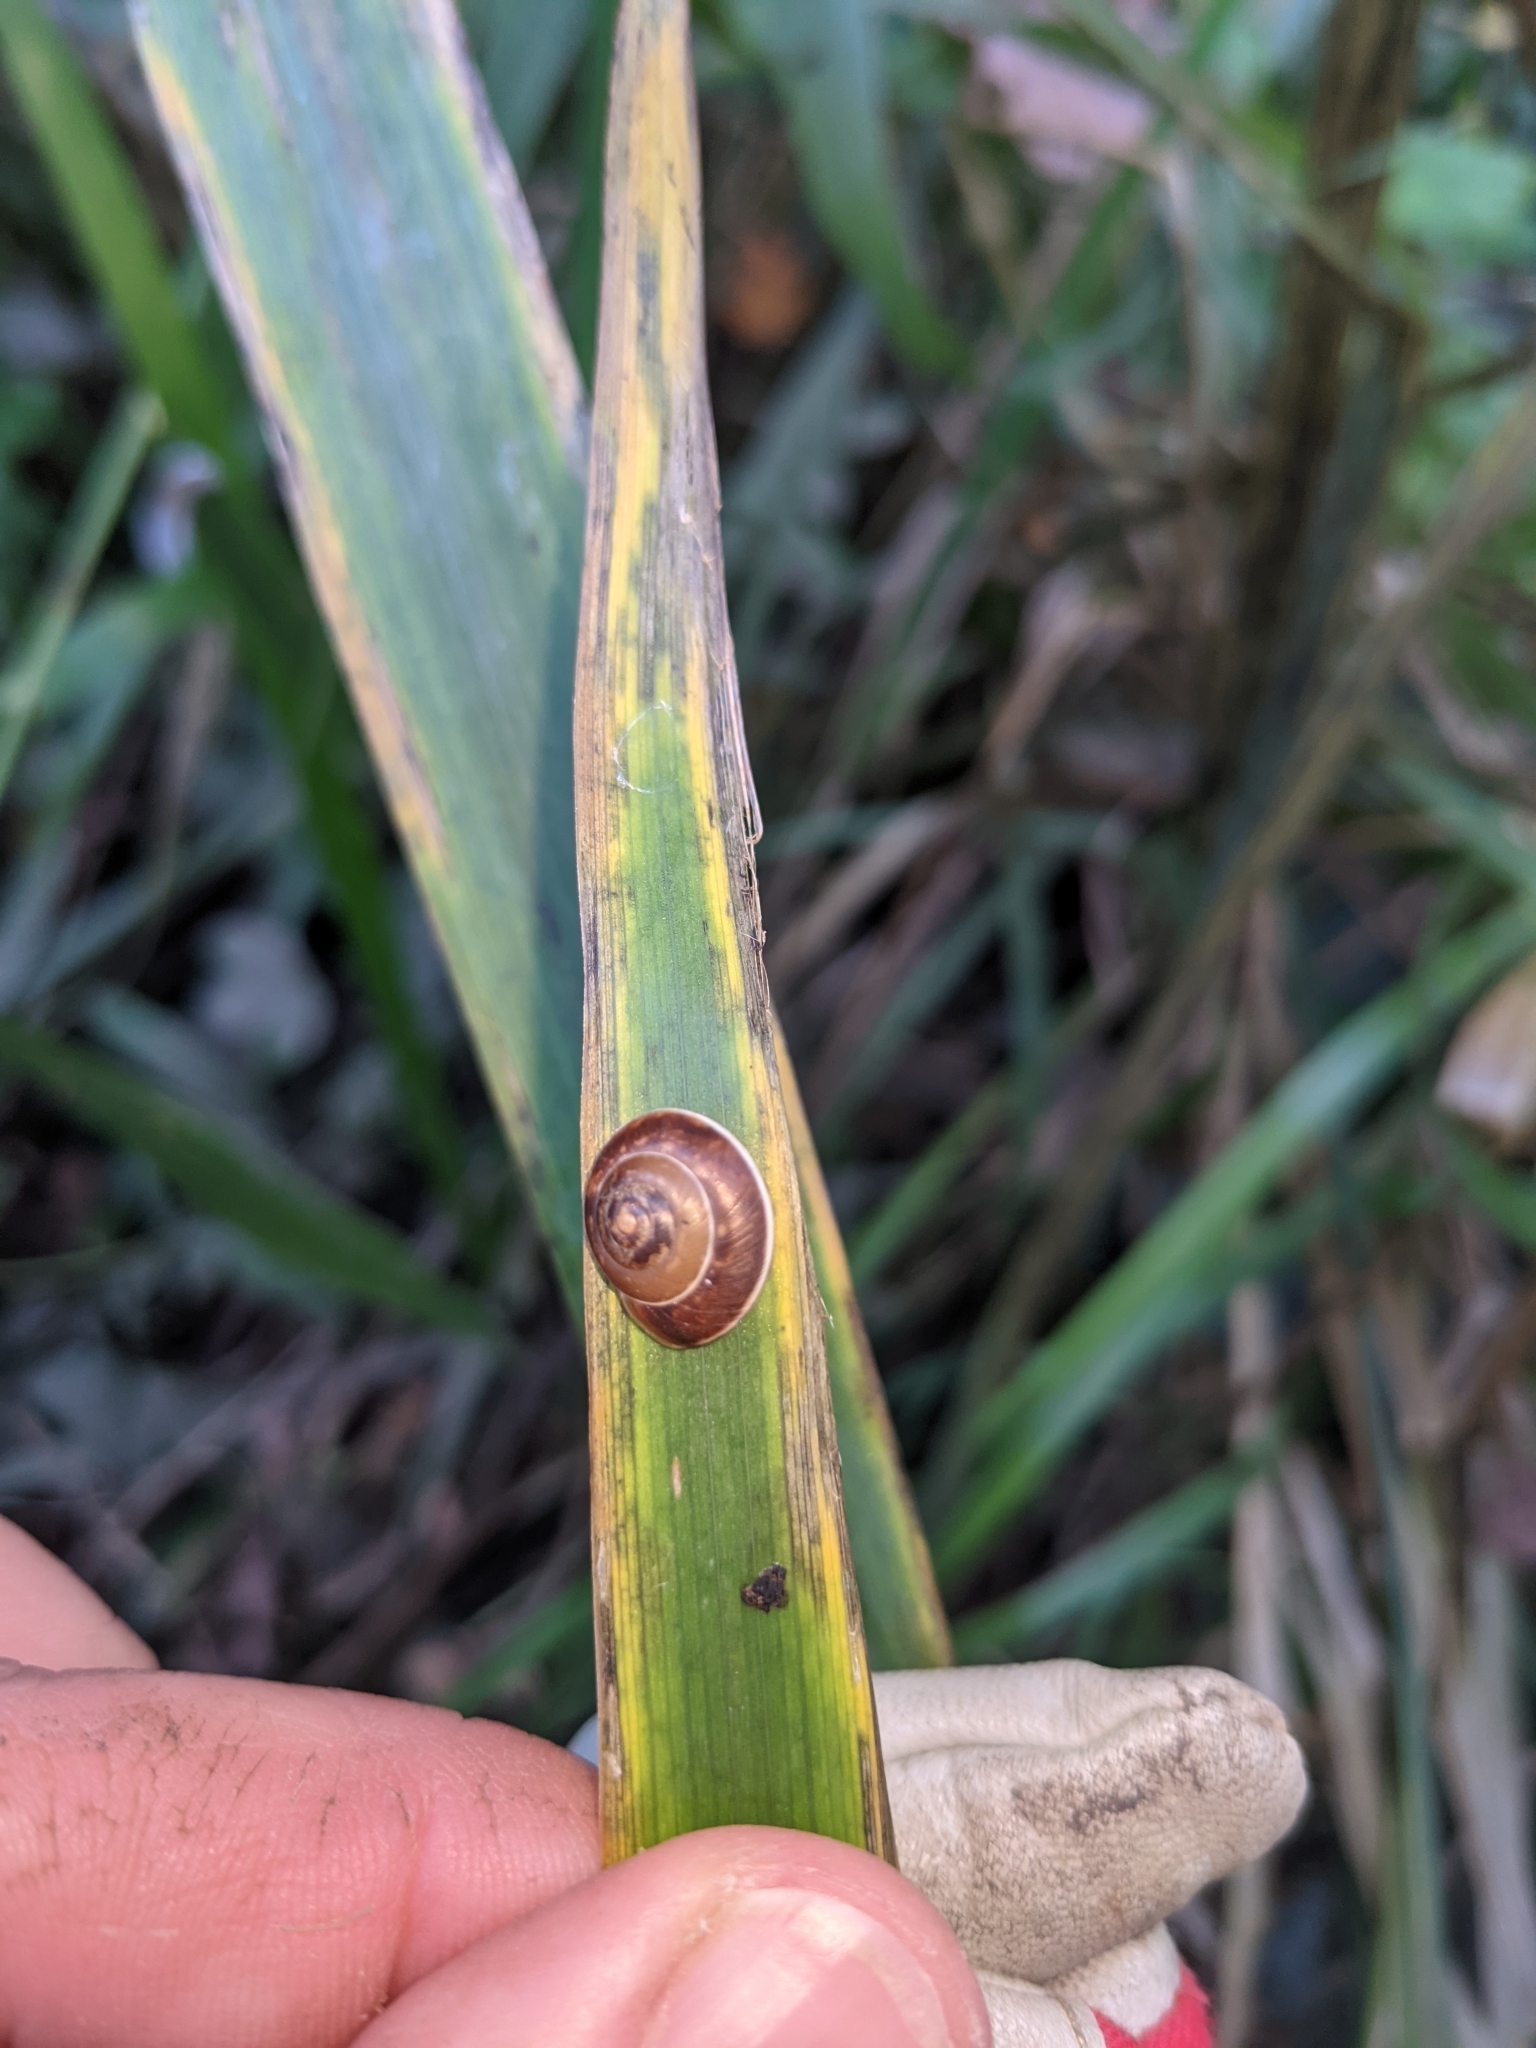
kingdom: Animalia
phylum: Mollusca
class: Gastropoda
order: Stylommatophora
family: Hygromiidae
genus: Hygromia
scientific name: Hygromia cinctella
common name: Girdled snail
